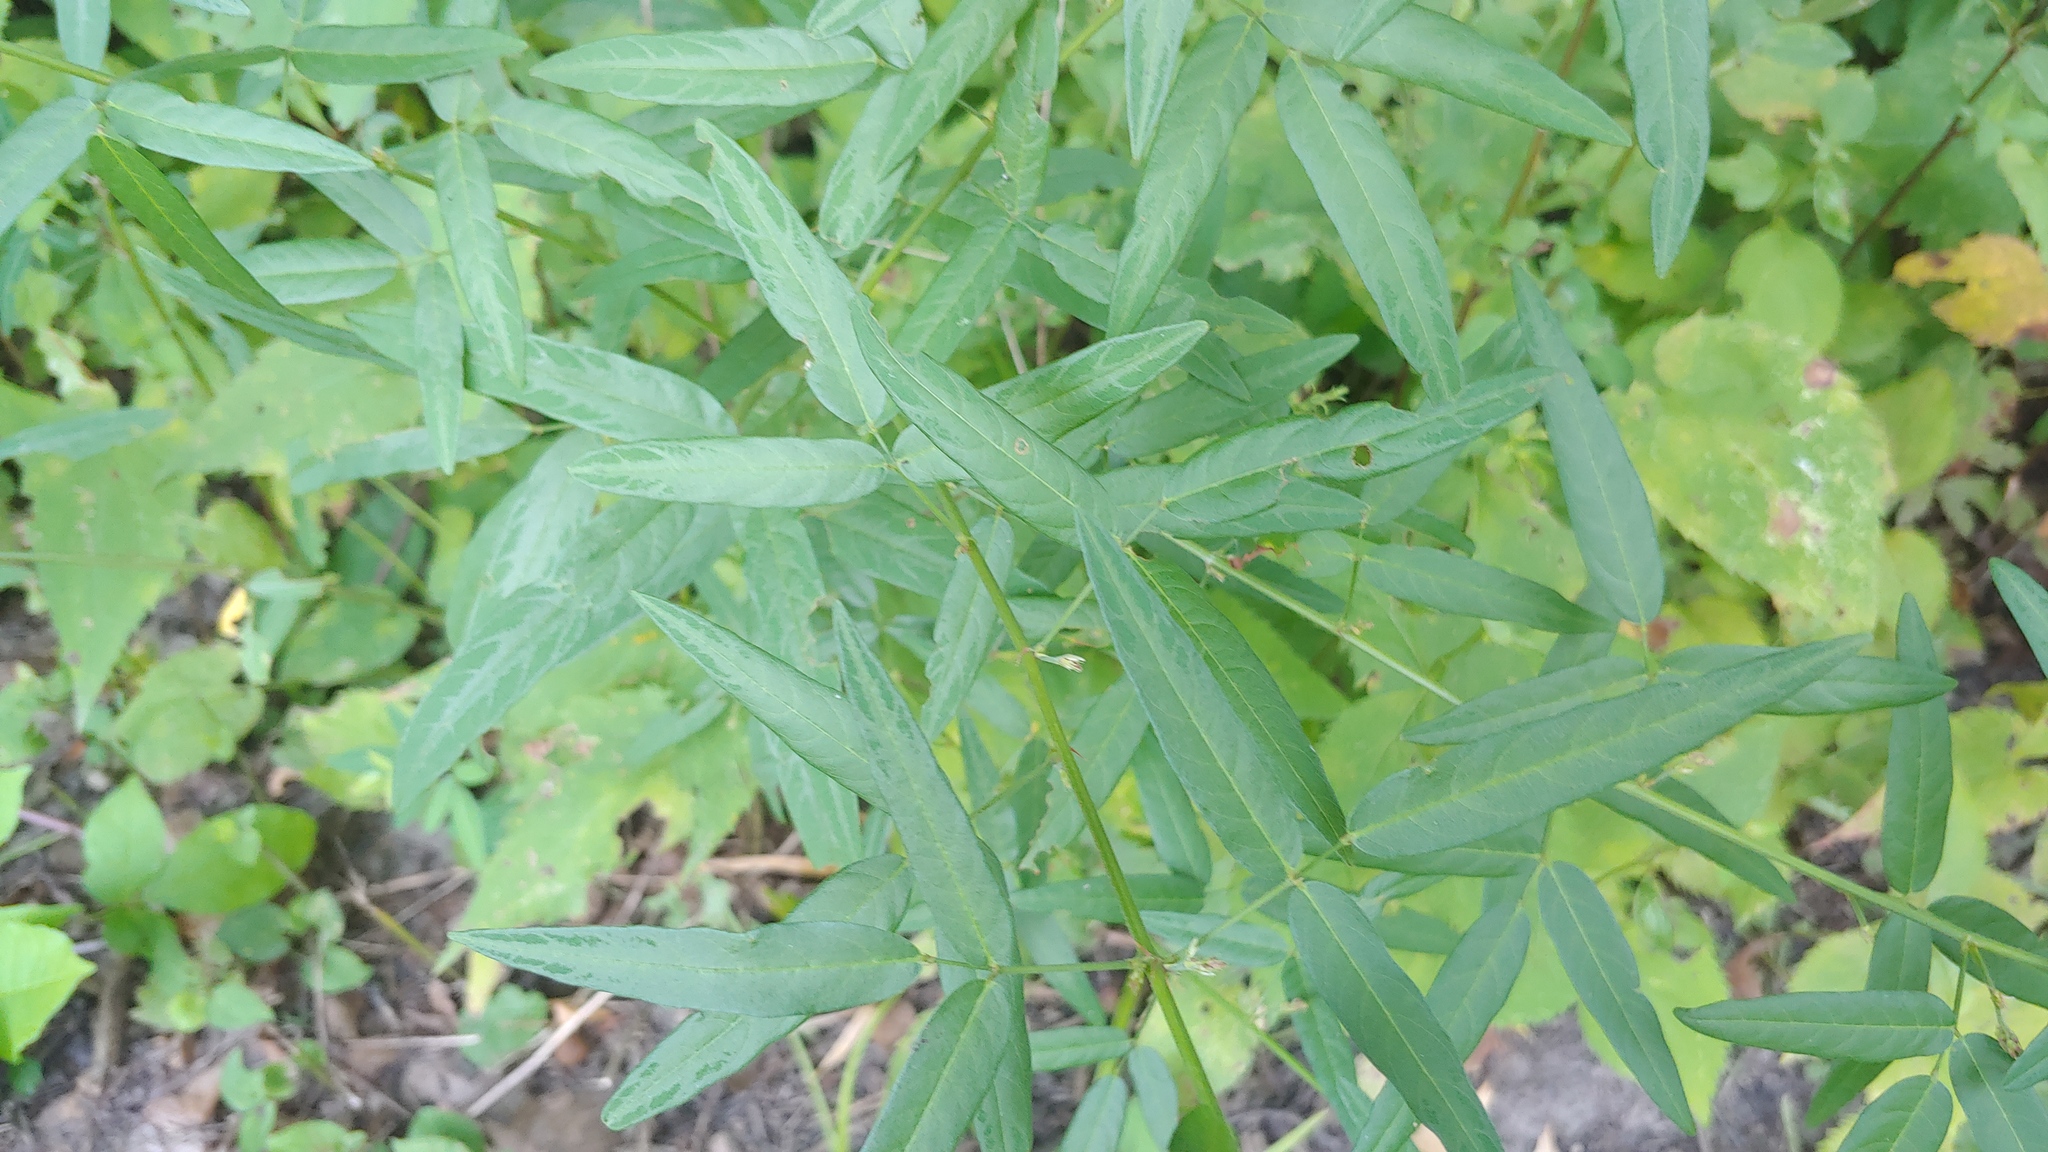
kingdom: Plantae
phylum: Tracheophyta
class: Magnoliopsida
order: Fabales
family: Fabaceae
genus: Desmodium
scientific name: Desmodium paniculatum
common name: Panicled tick-clover
